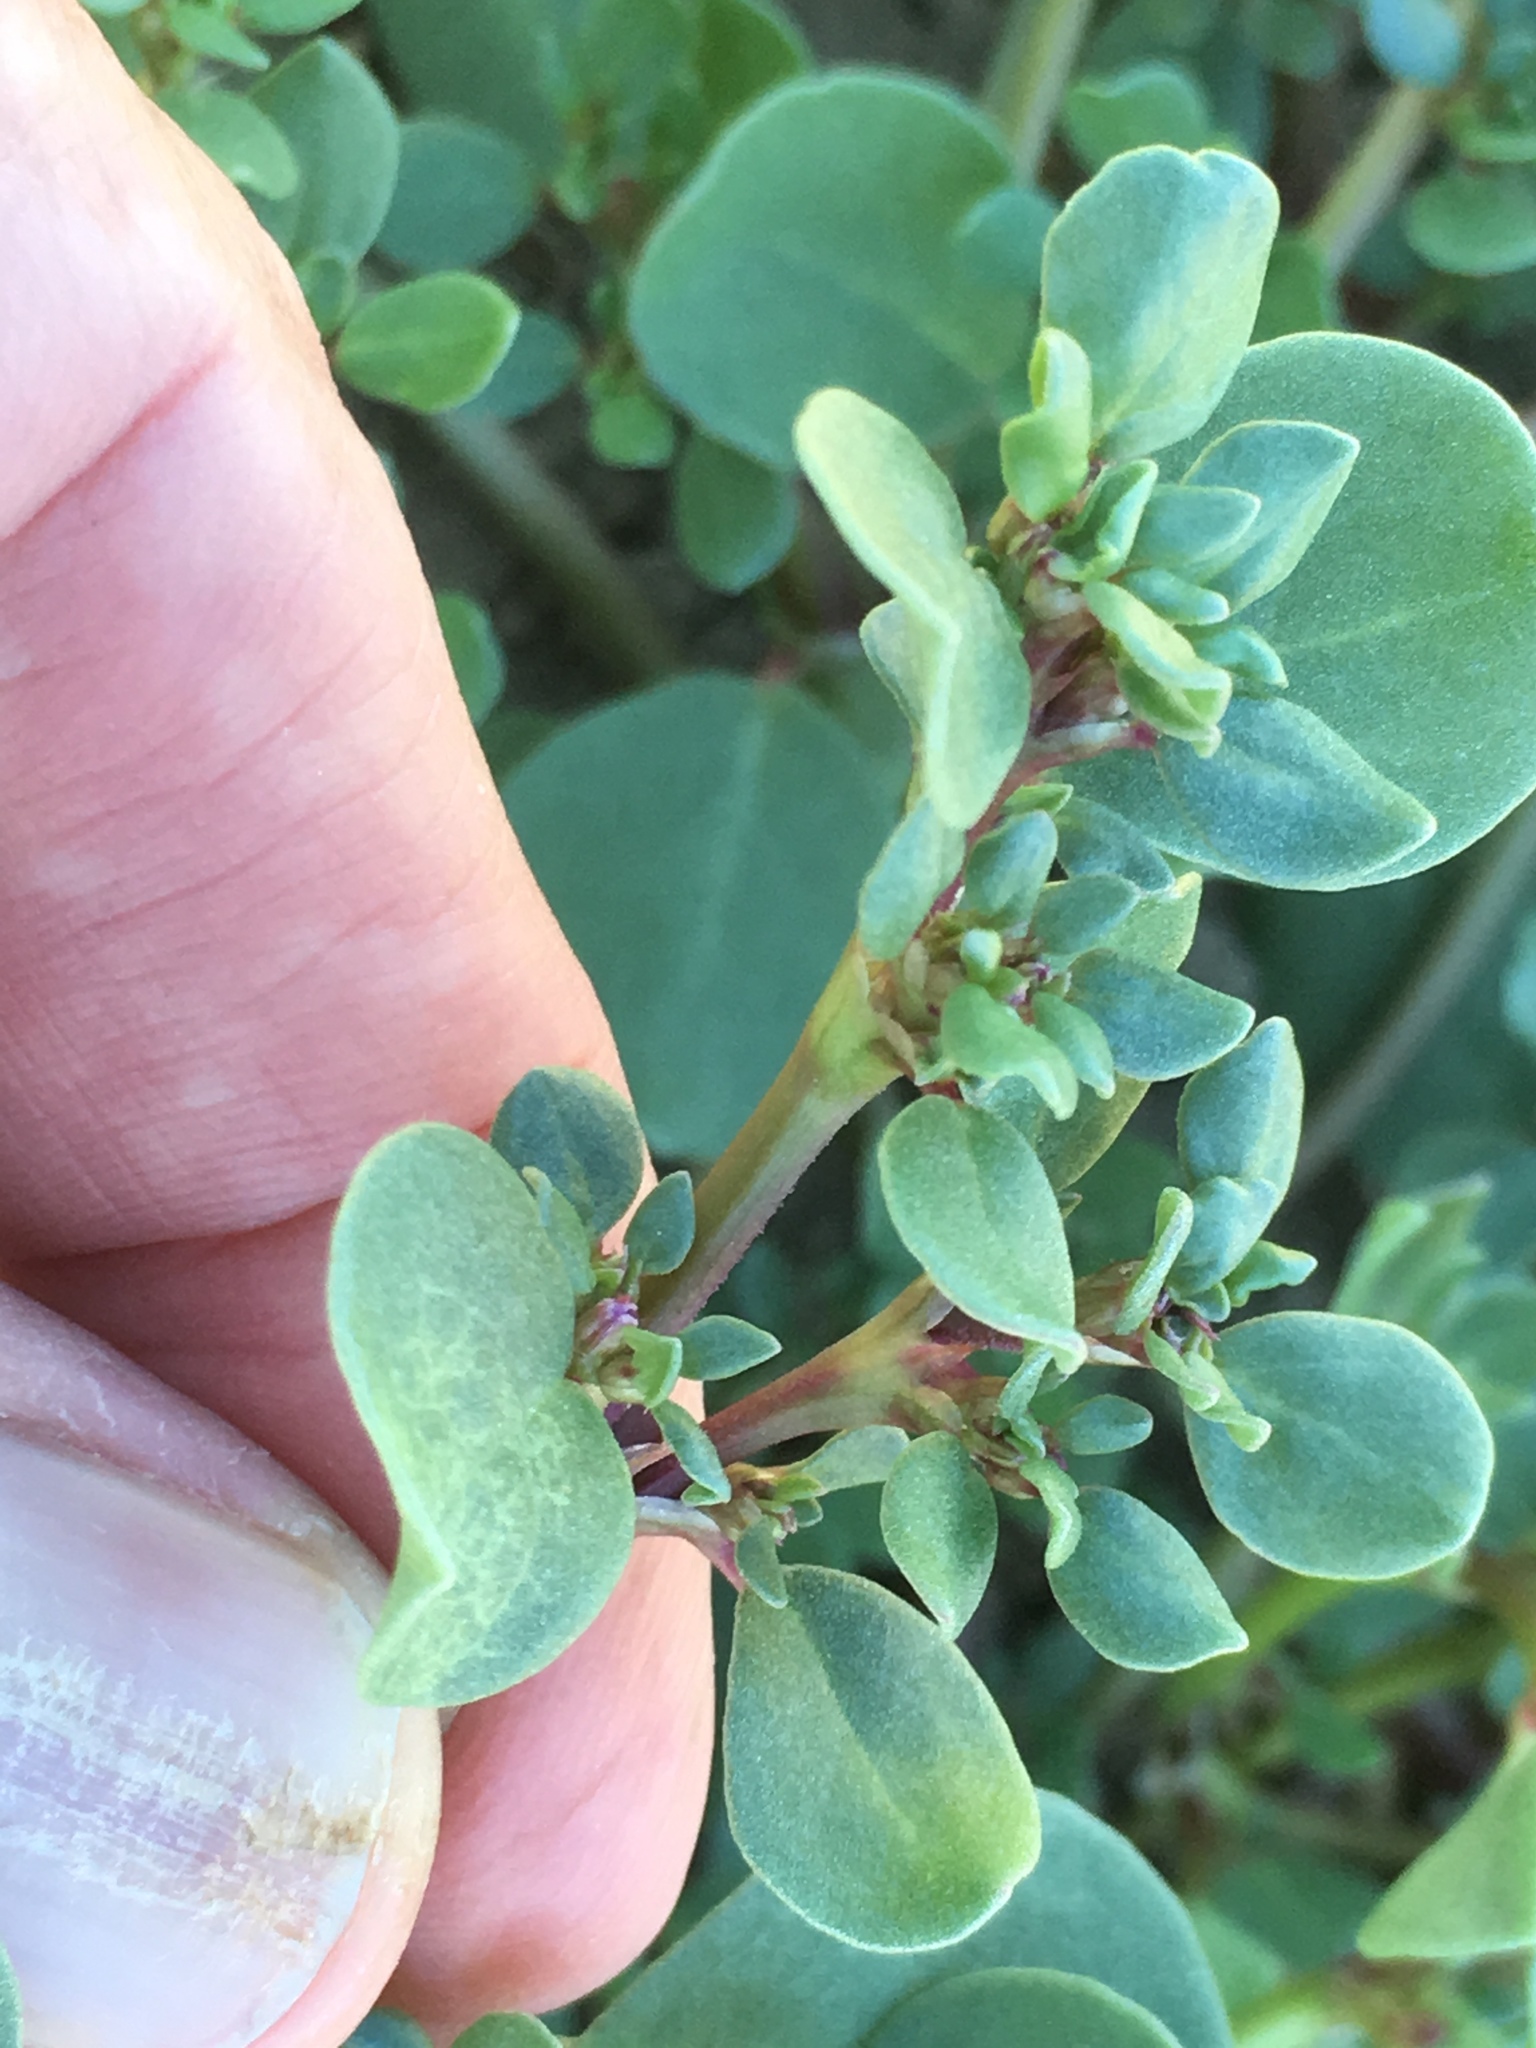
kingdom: Plantae
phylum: Tracheophyta
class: Magnoliopsida
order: Caryophyllales
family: Aizoaceae
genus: Trianthema
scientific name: Trianthema portulacastrum
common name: Desert horsepurslane
